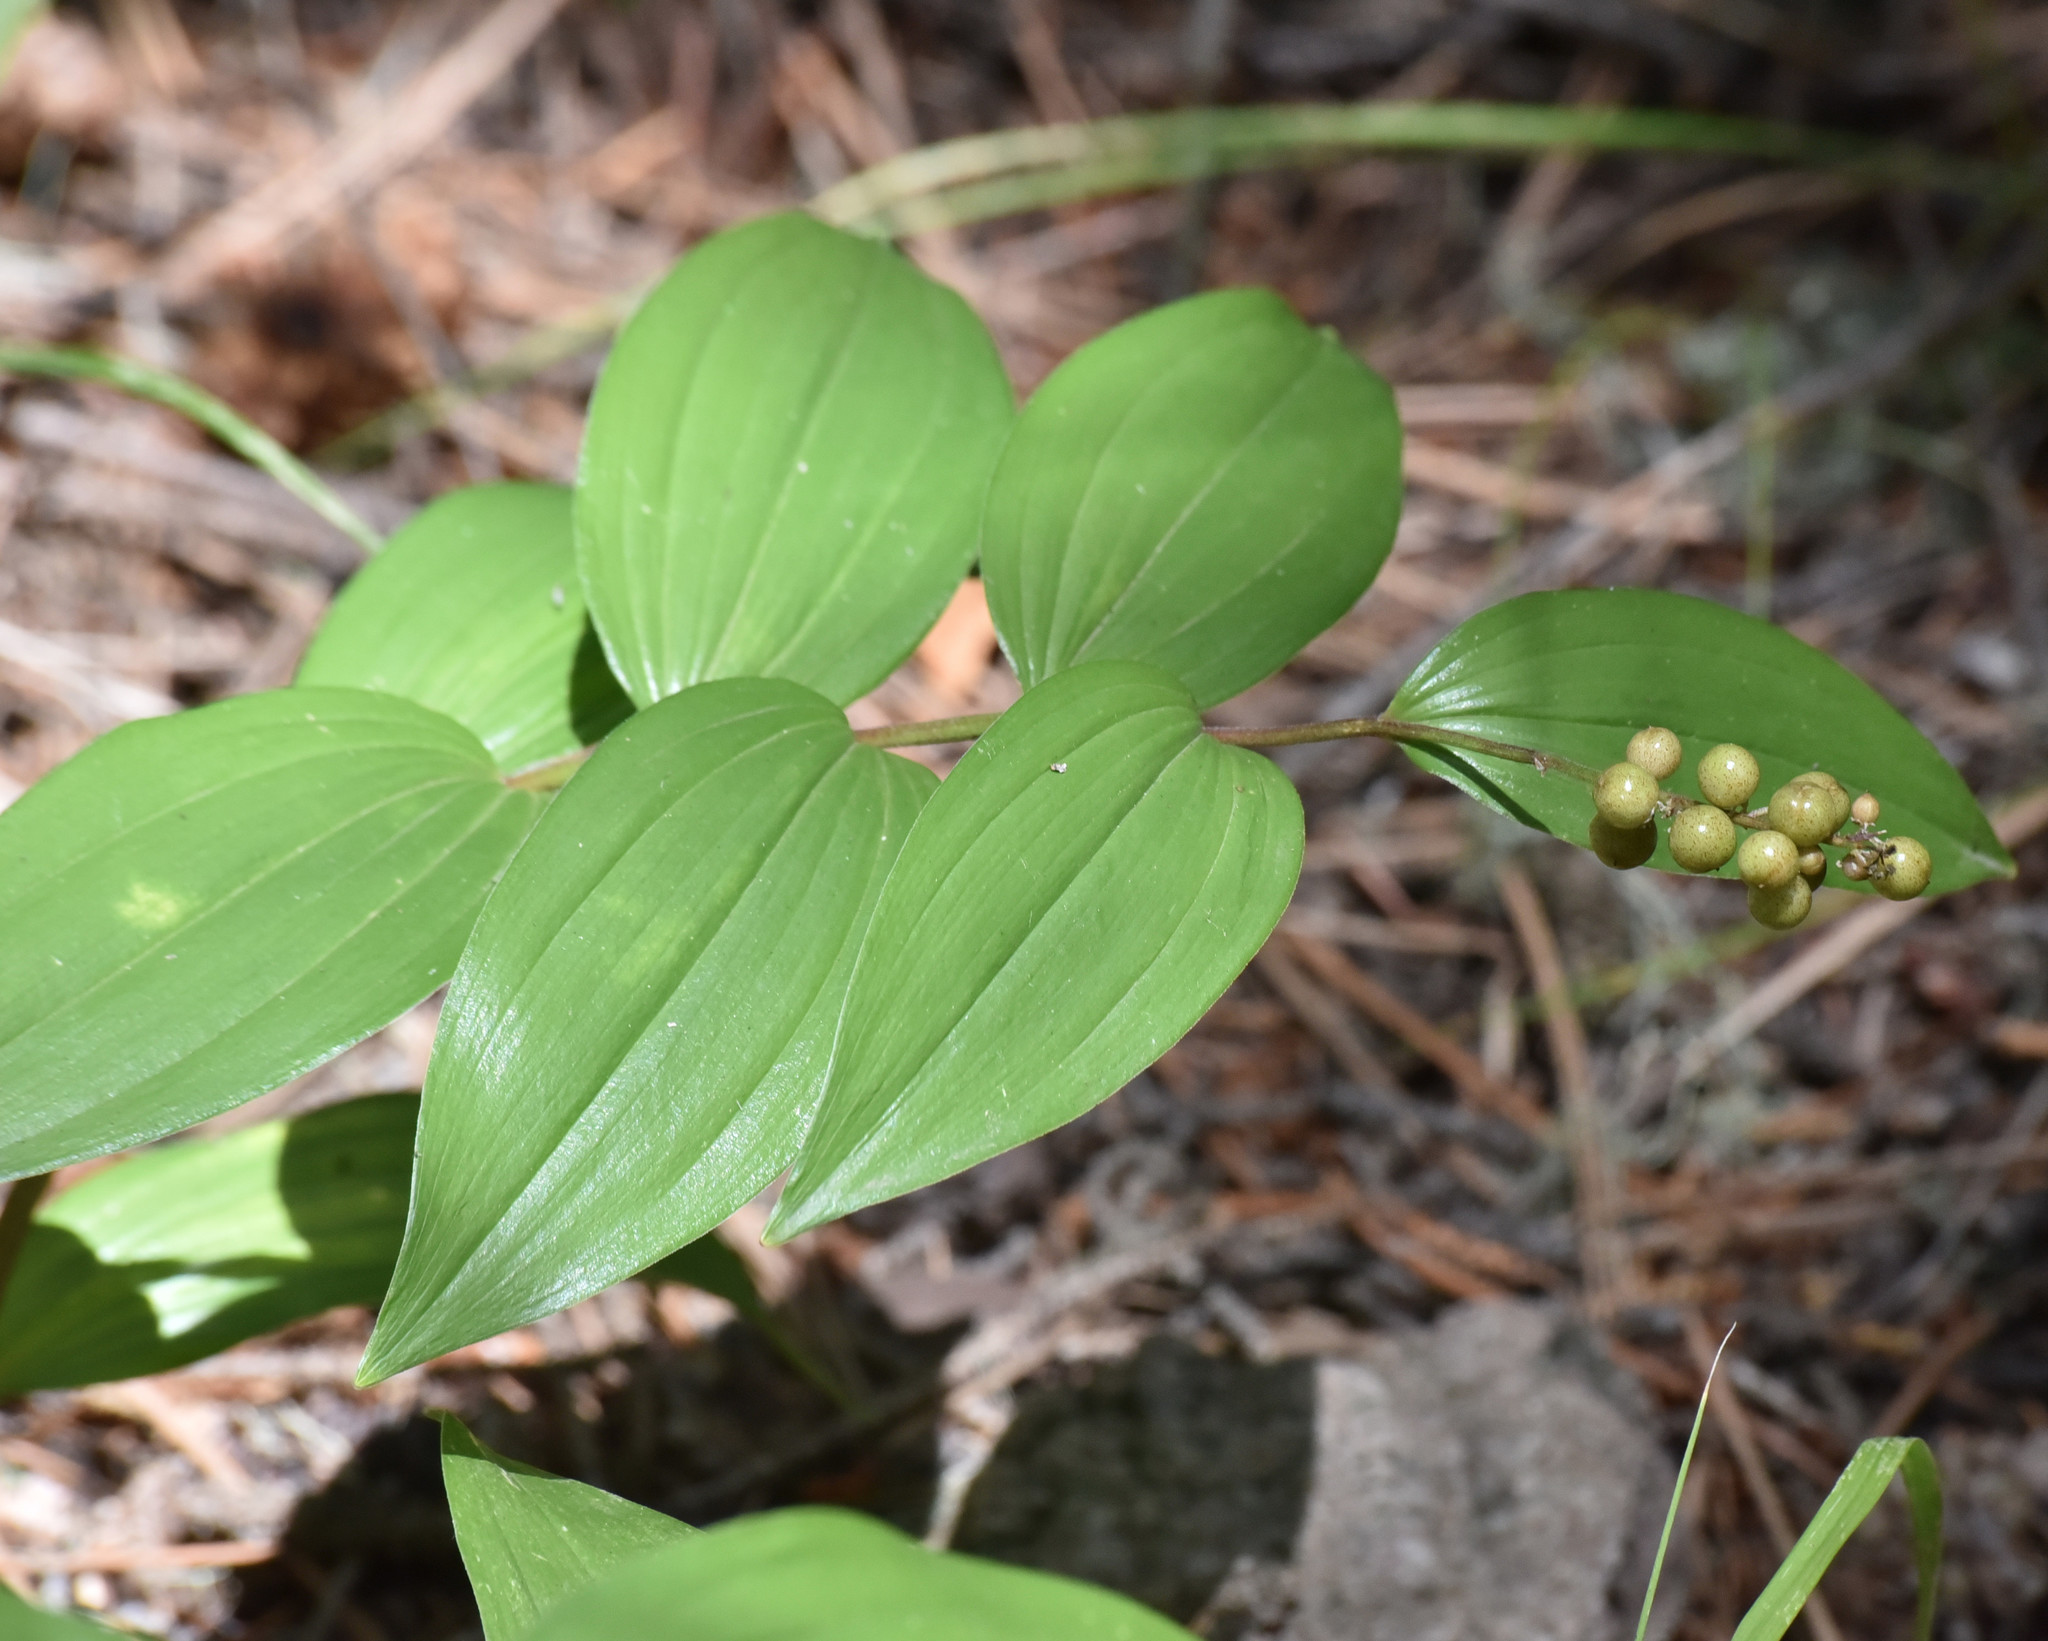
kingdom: Plantae
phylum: Tracheophyta
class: Liliopsida
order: Asparagales
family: Asparagaceae
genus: Maianthemum
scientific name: Maianthemum racemosum
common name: False spikenard
